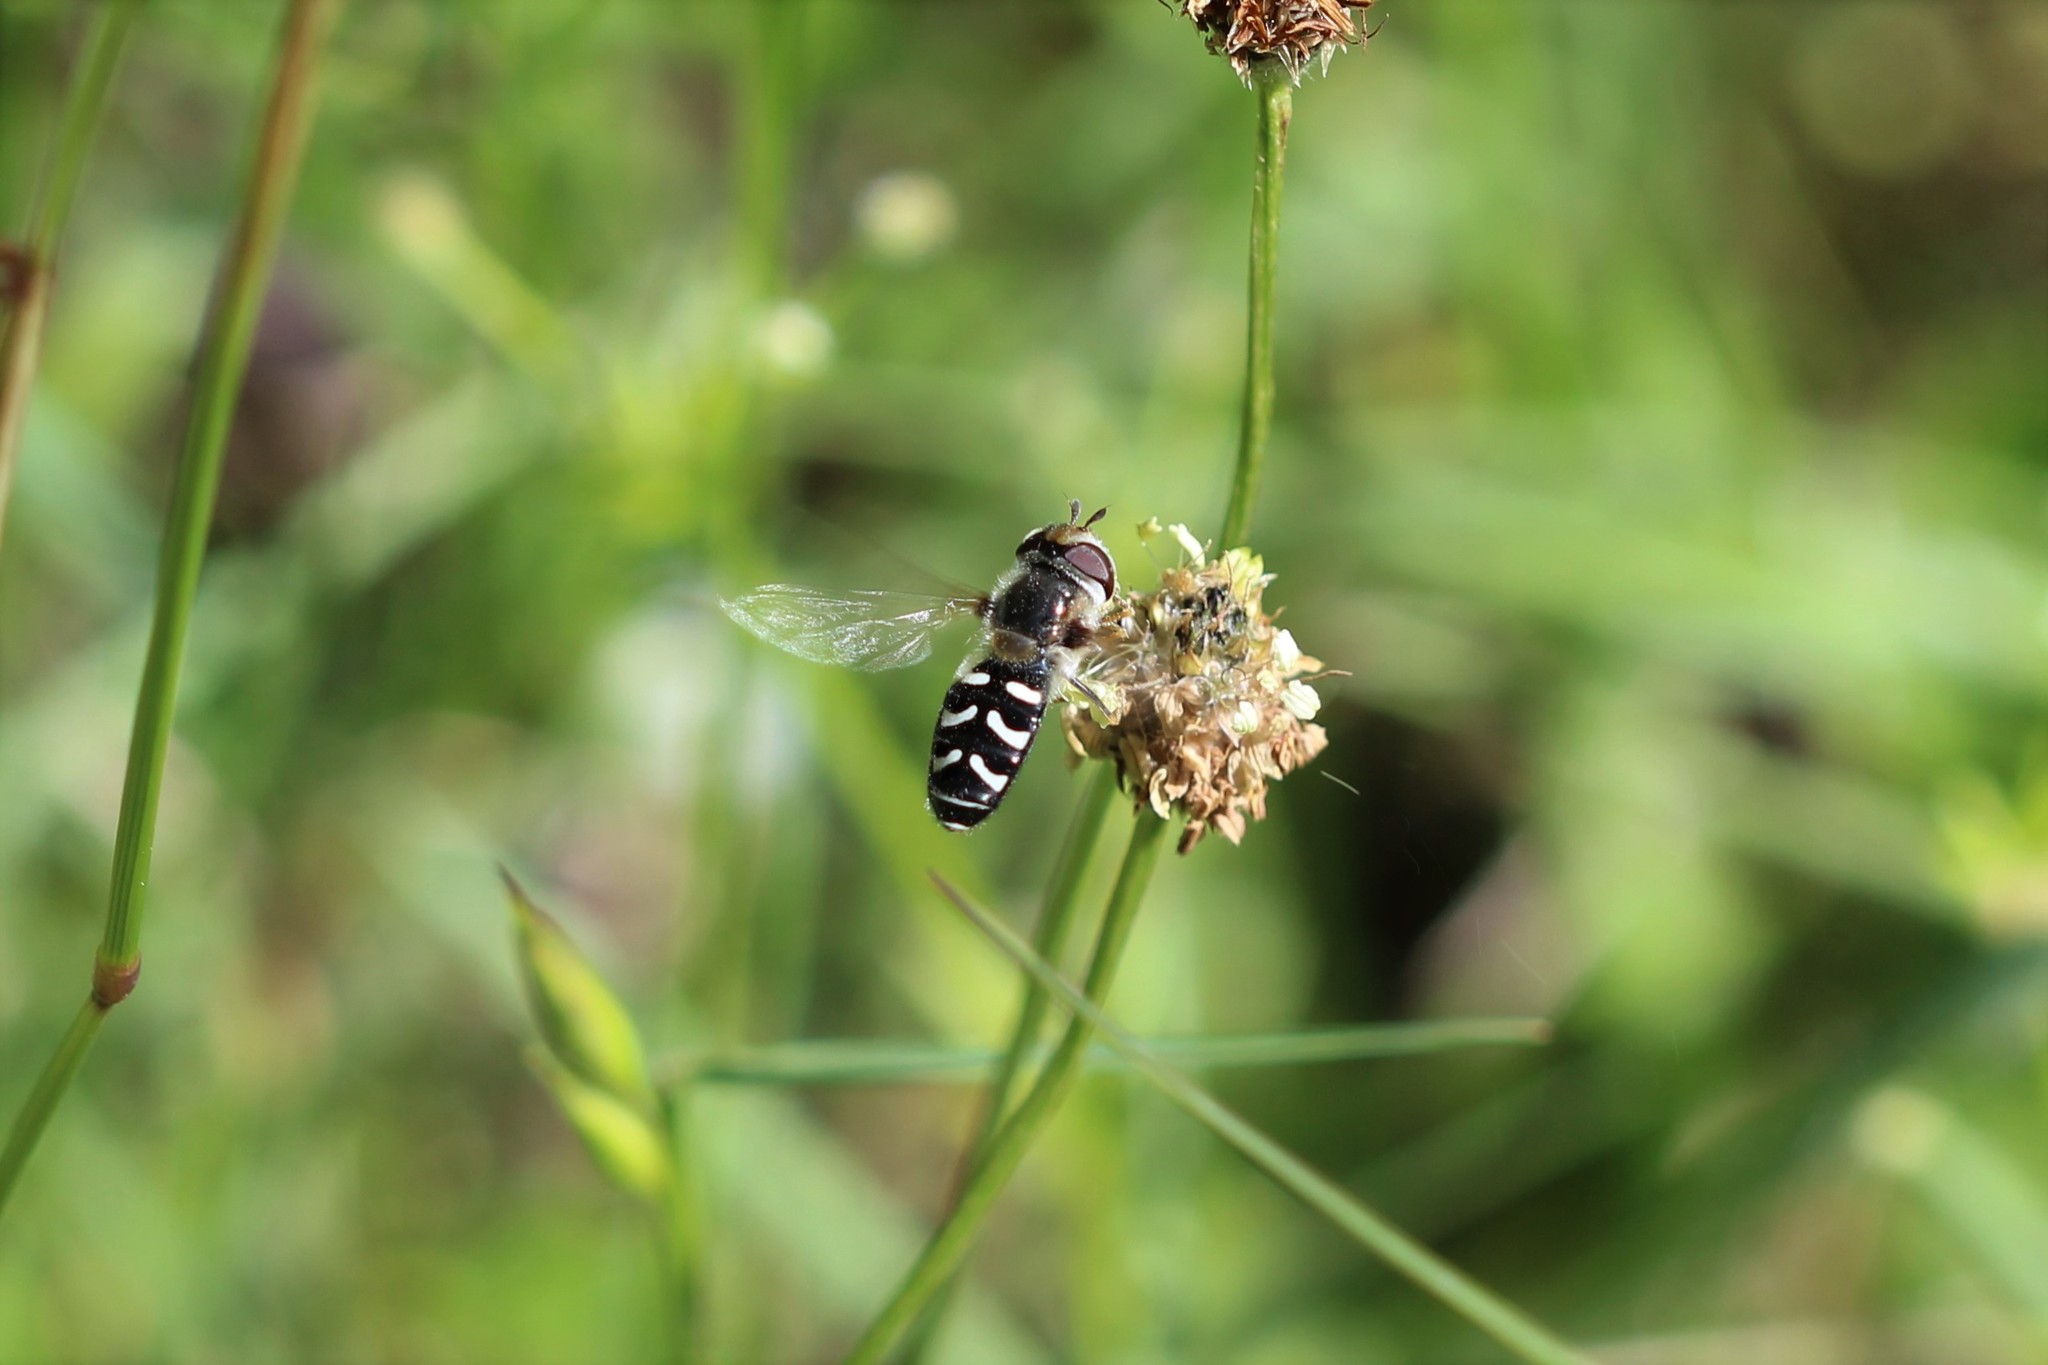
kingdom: Animalia
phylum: Arthropoda
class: Insecta
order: Diptera
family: Syrphidae
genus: Scaeva
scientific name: Scaeva affinis
